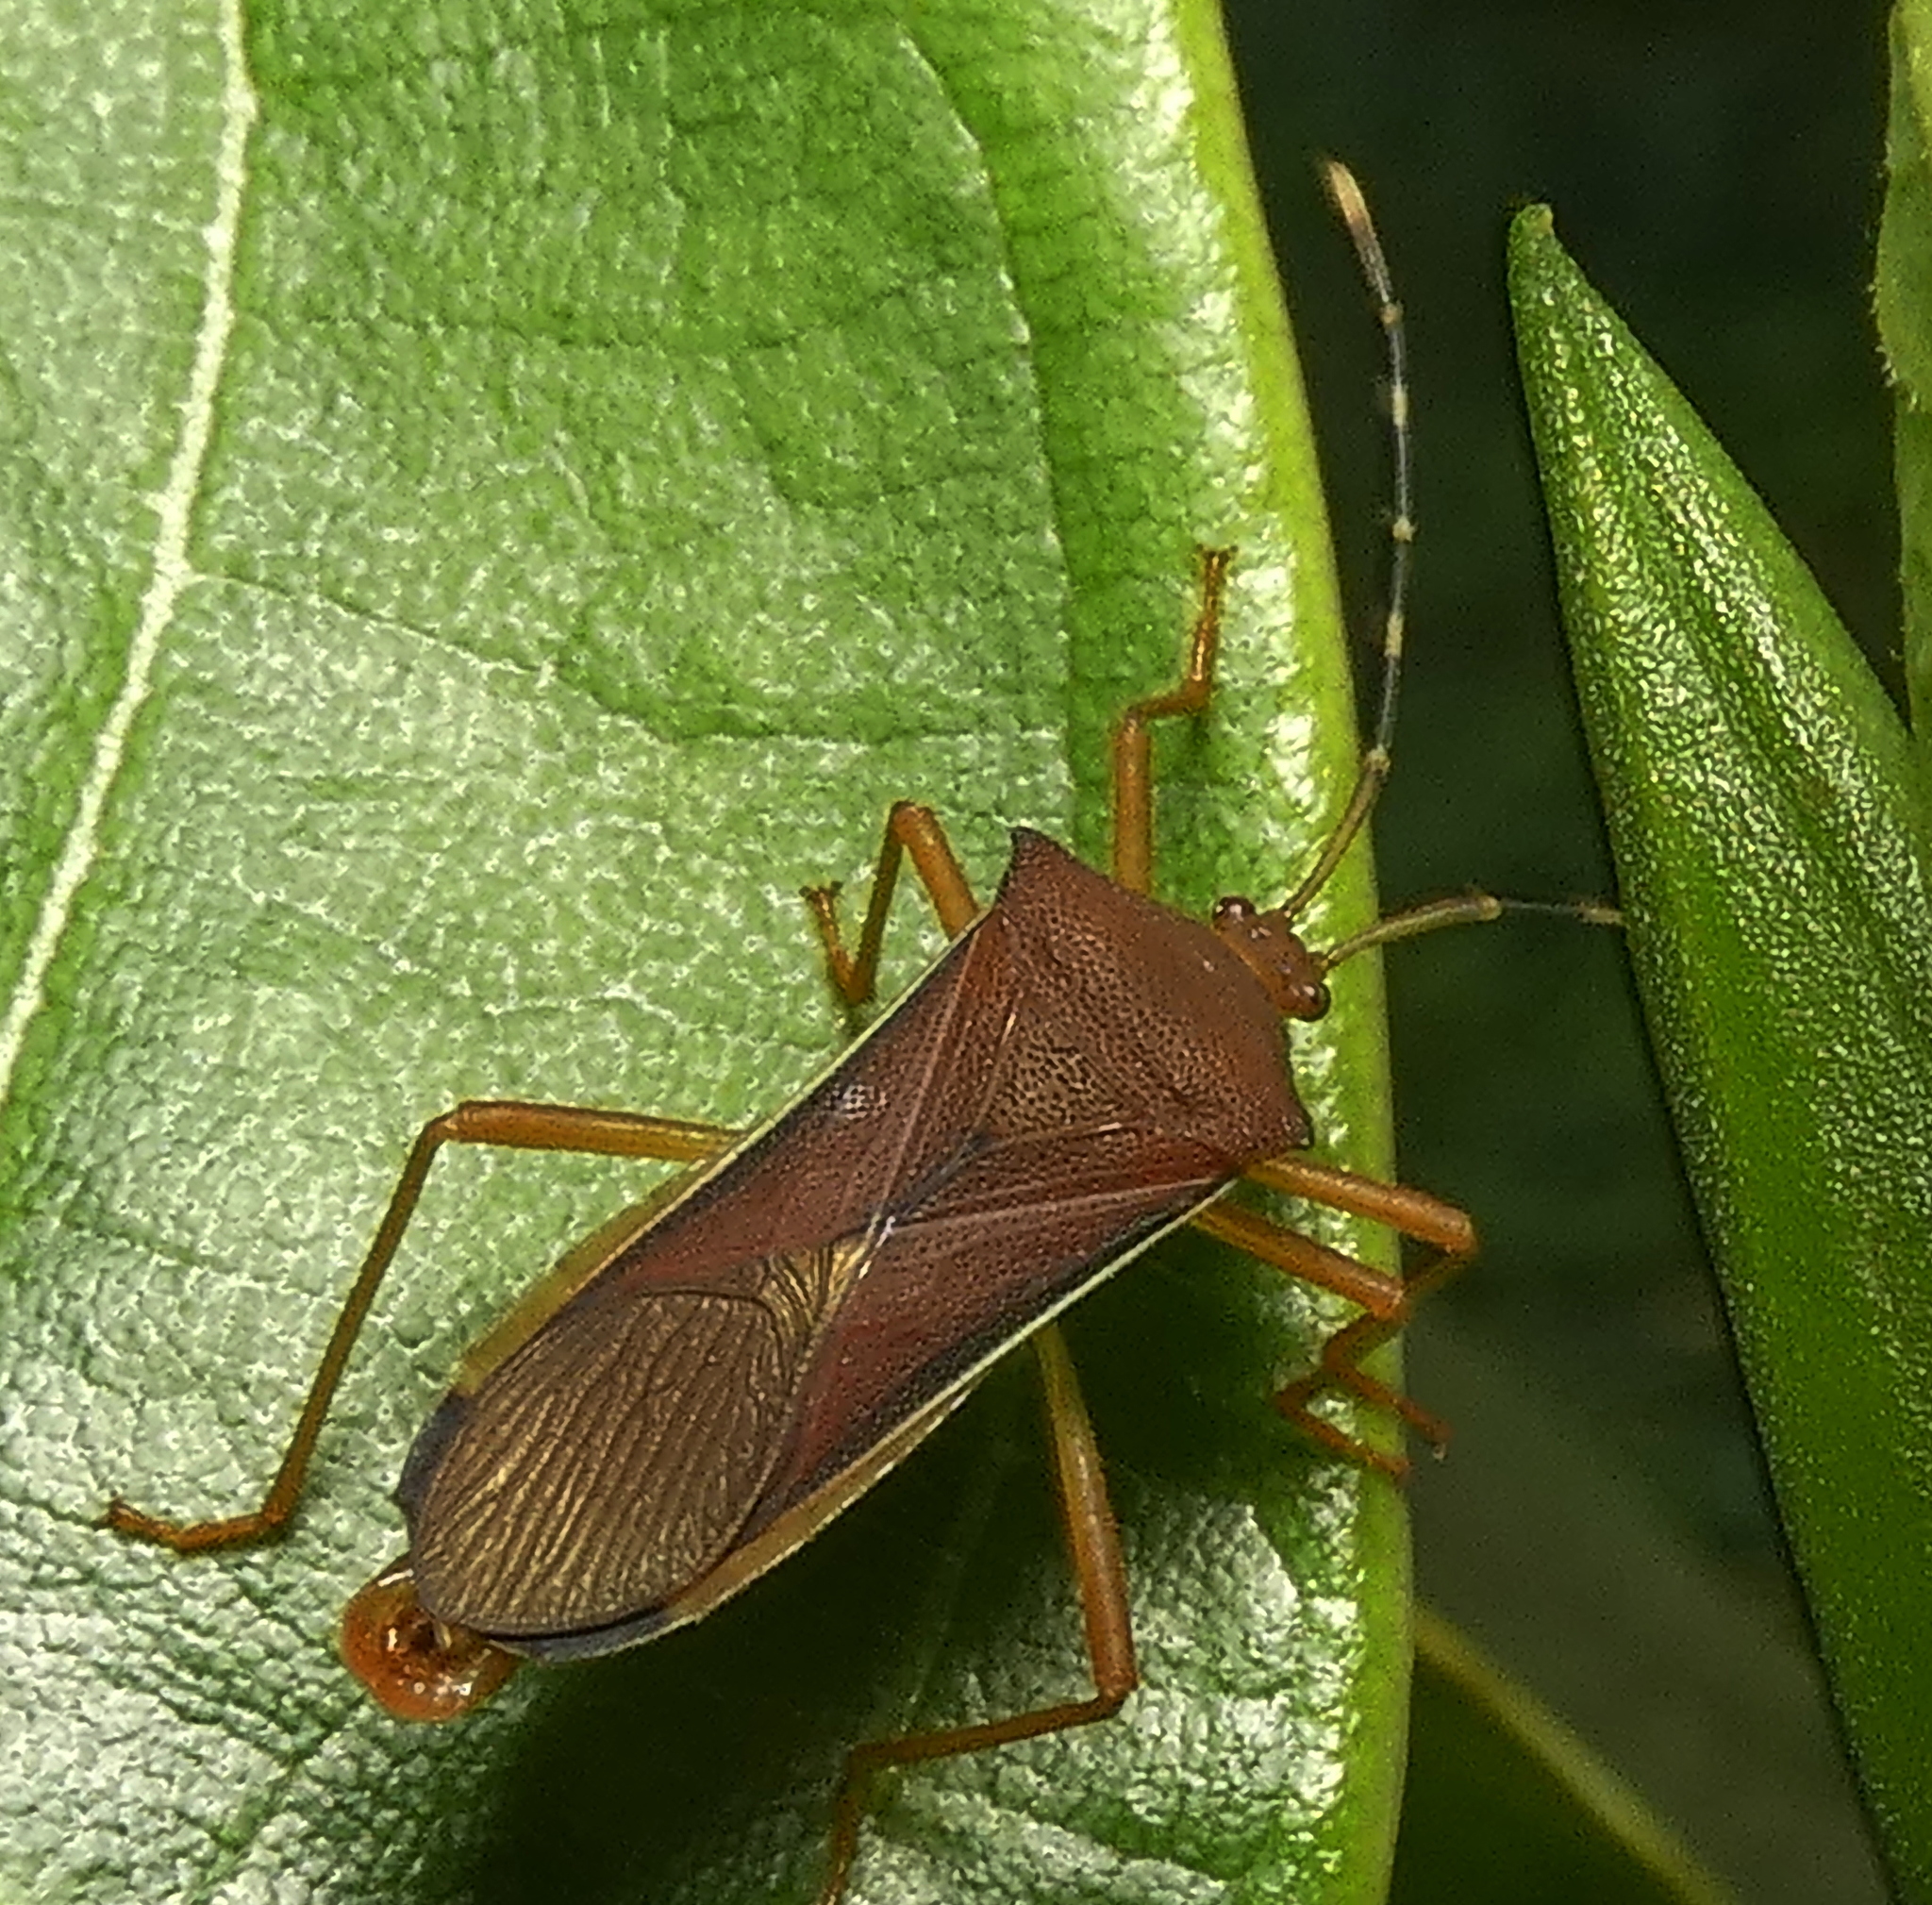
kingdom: Animalia
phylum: Arthropoda
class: Insecta
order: Hemiptera
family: Coreidae
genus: Anasa
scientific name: Anasa varicornis
